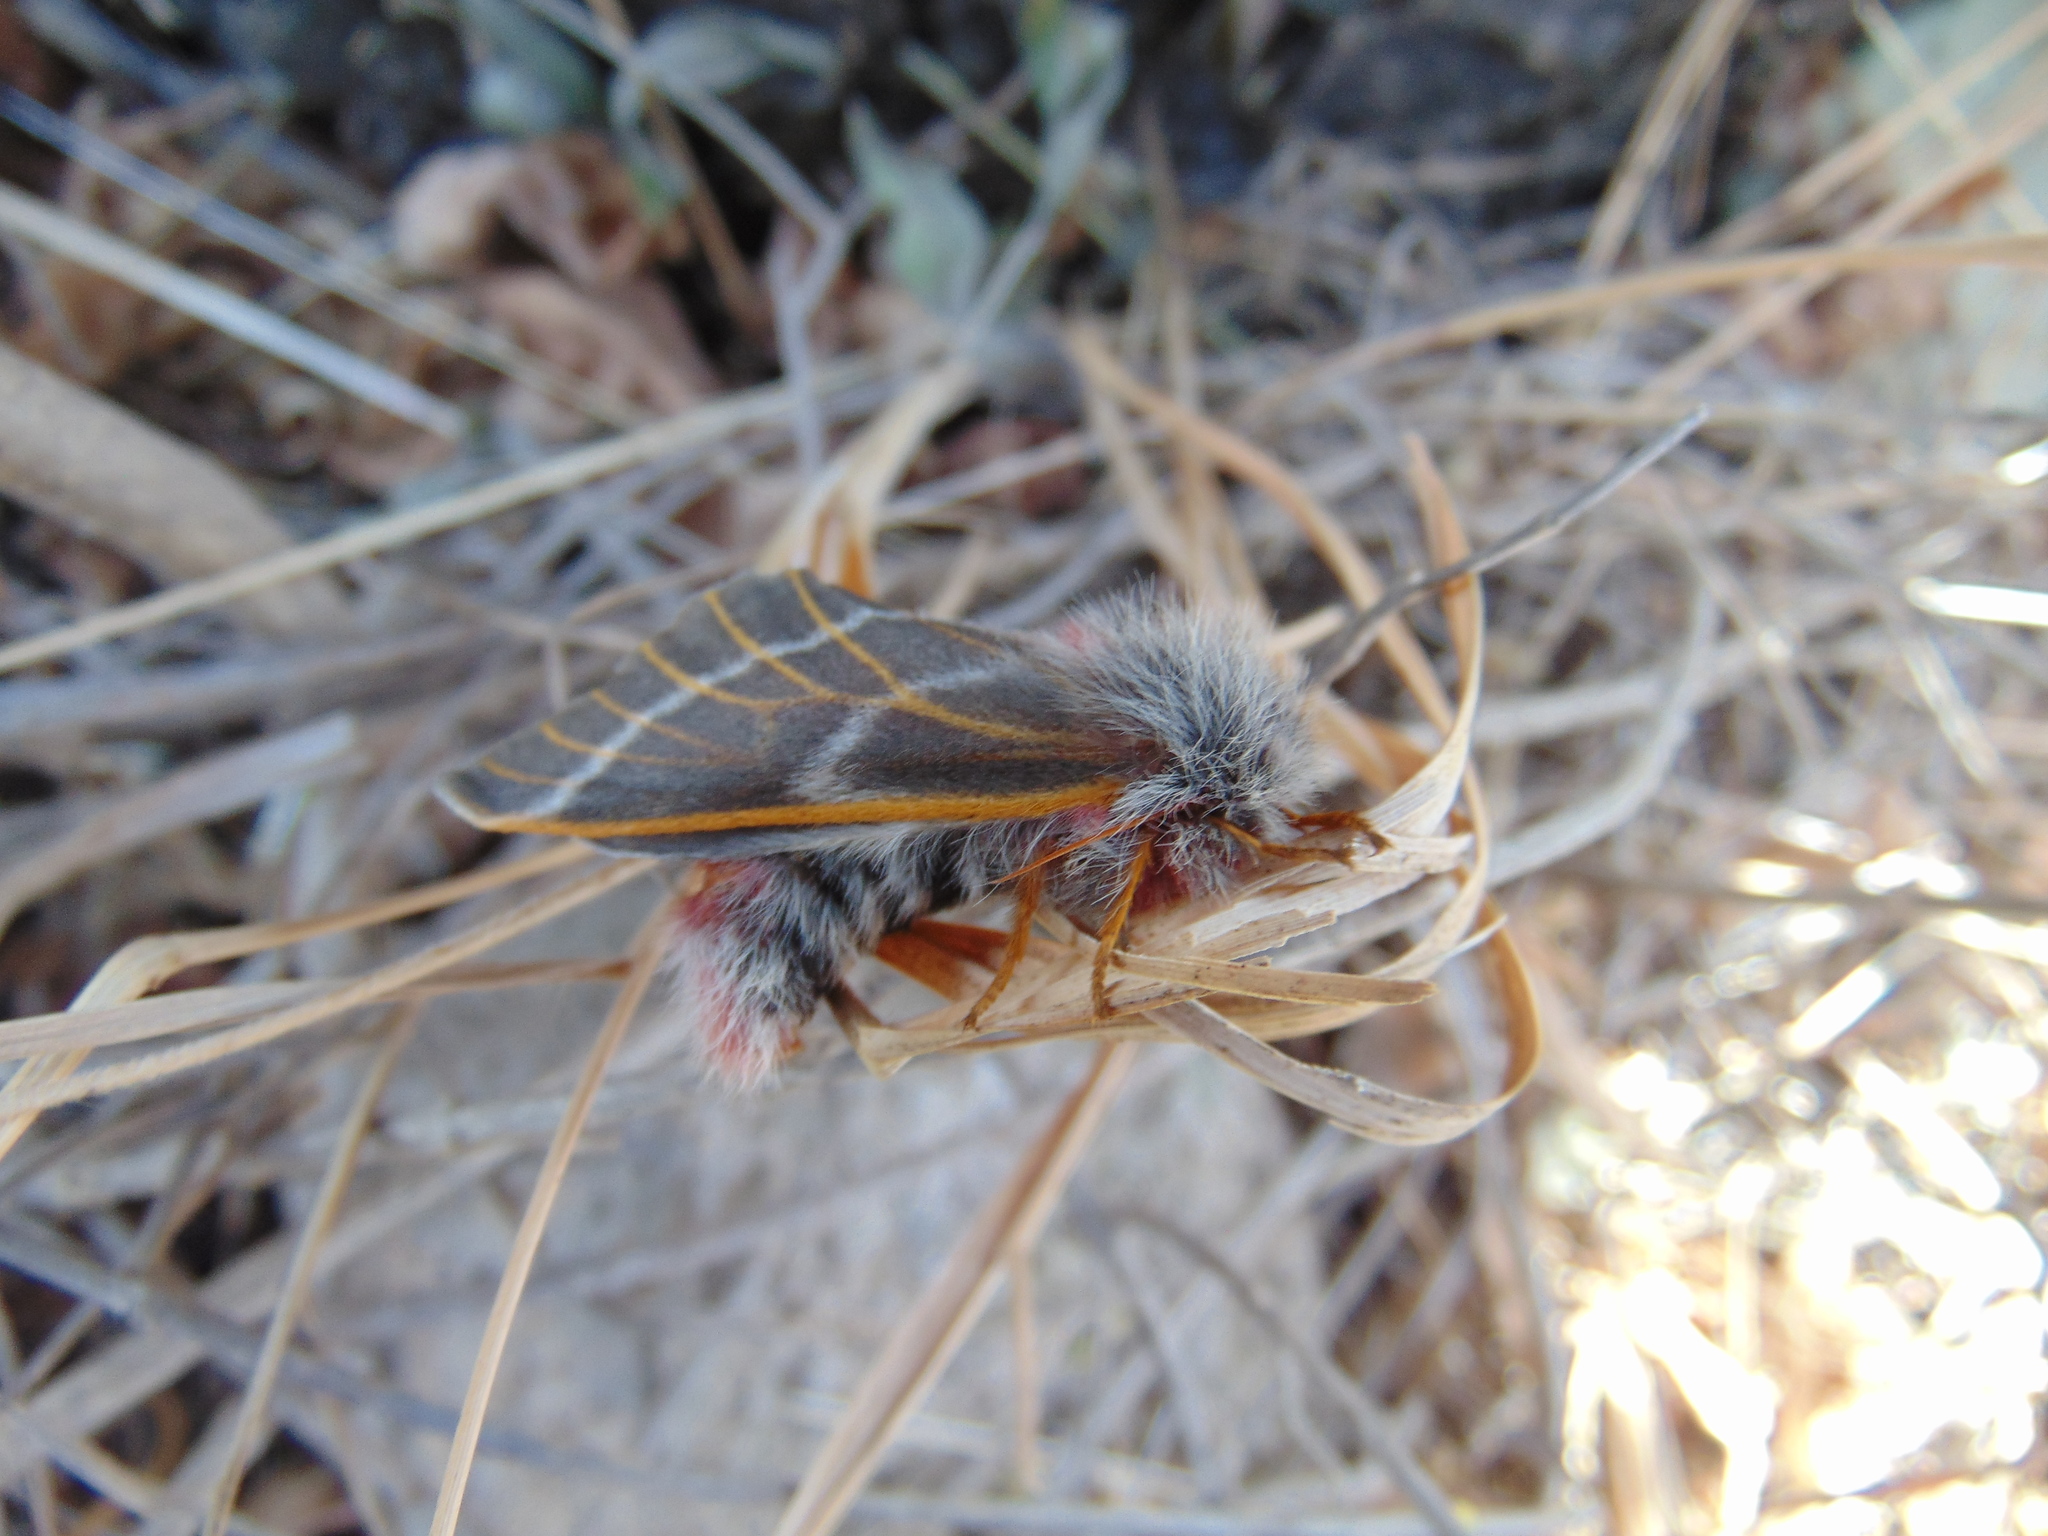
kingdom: Animalia
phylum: Arthropoda
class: Insecta
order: Lepidoptera
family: Saturniidae
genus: Hemileuca
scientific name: Hemileuca rubridorsa
